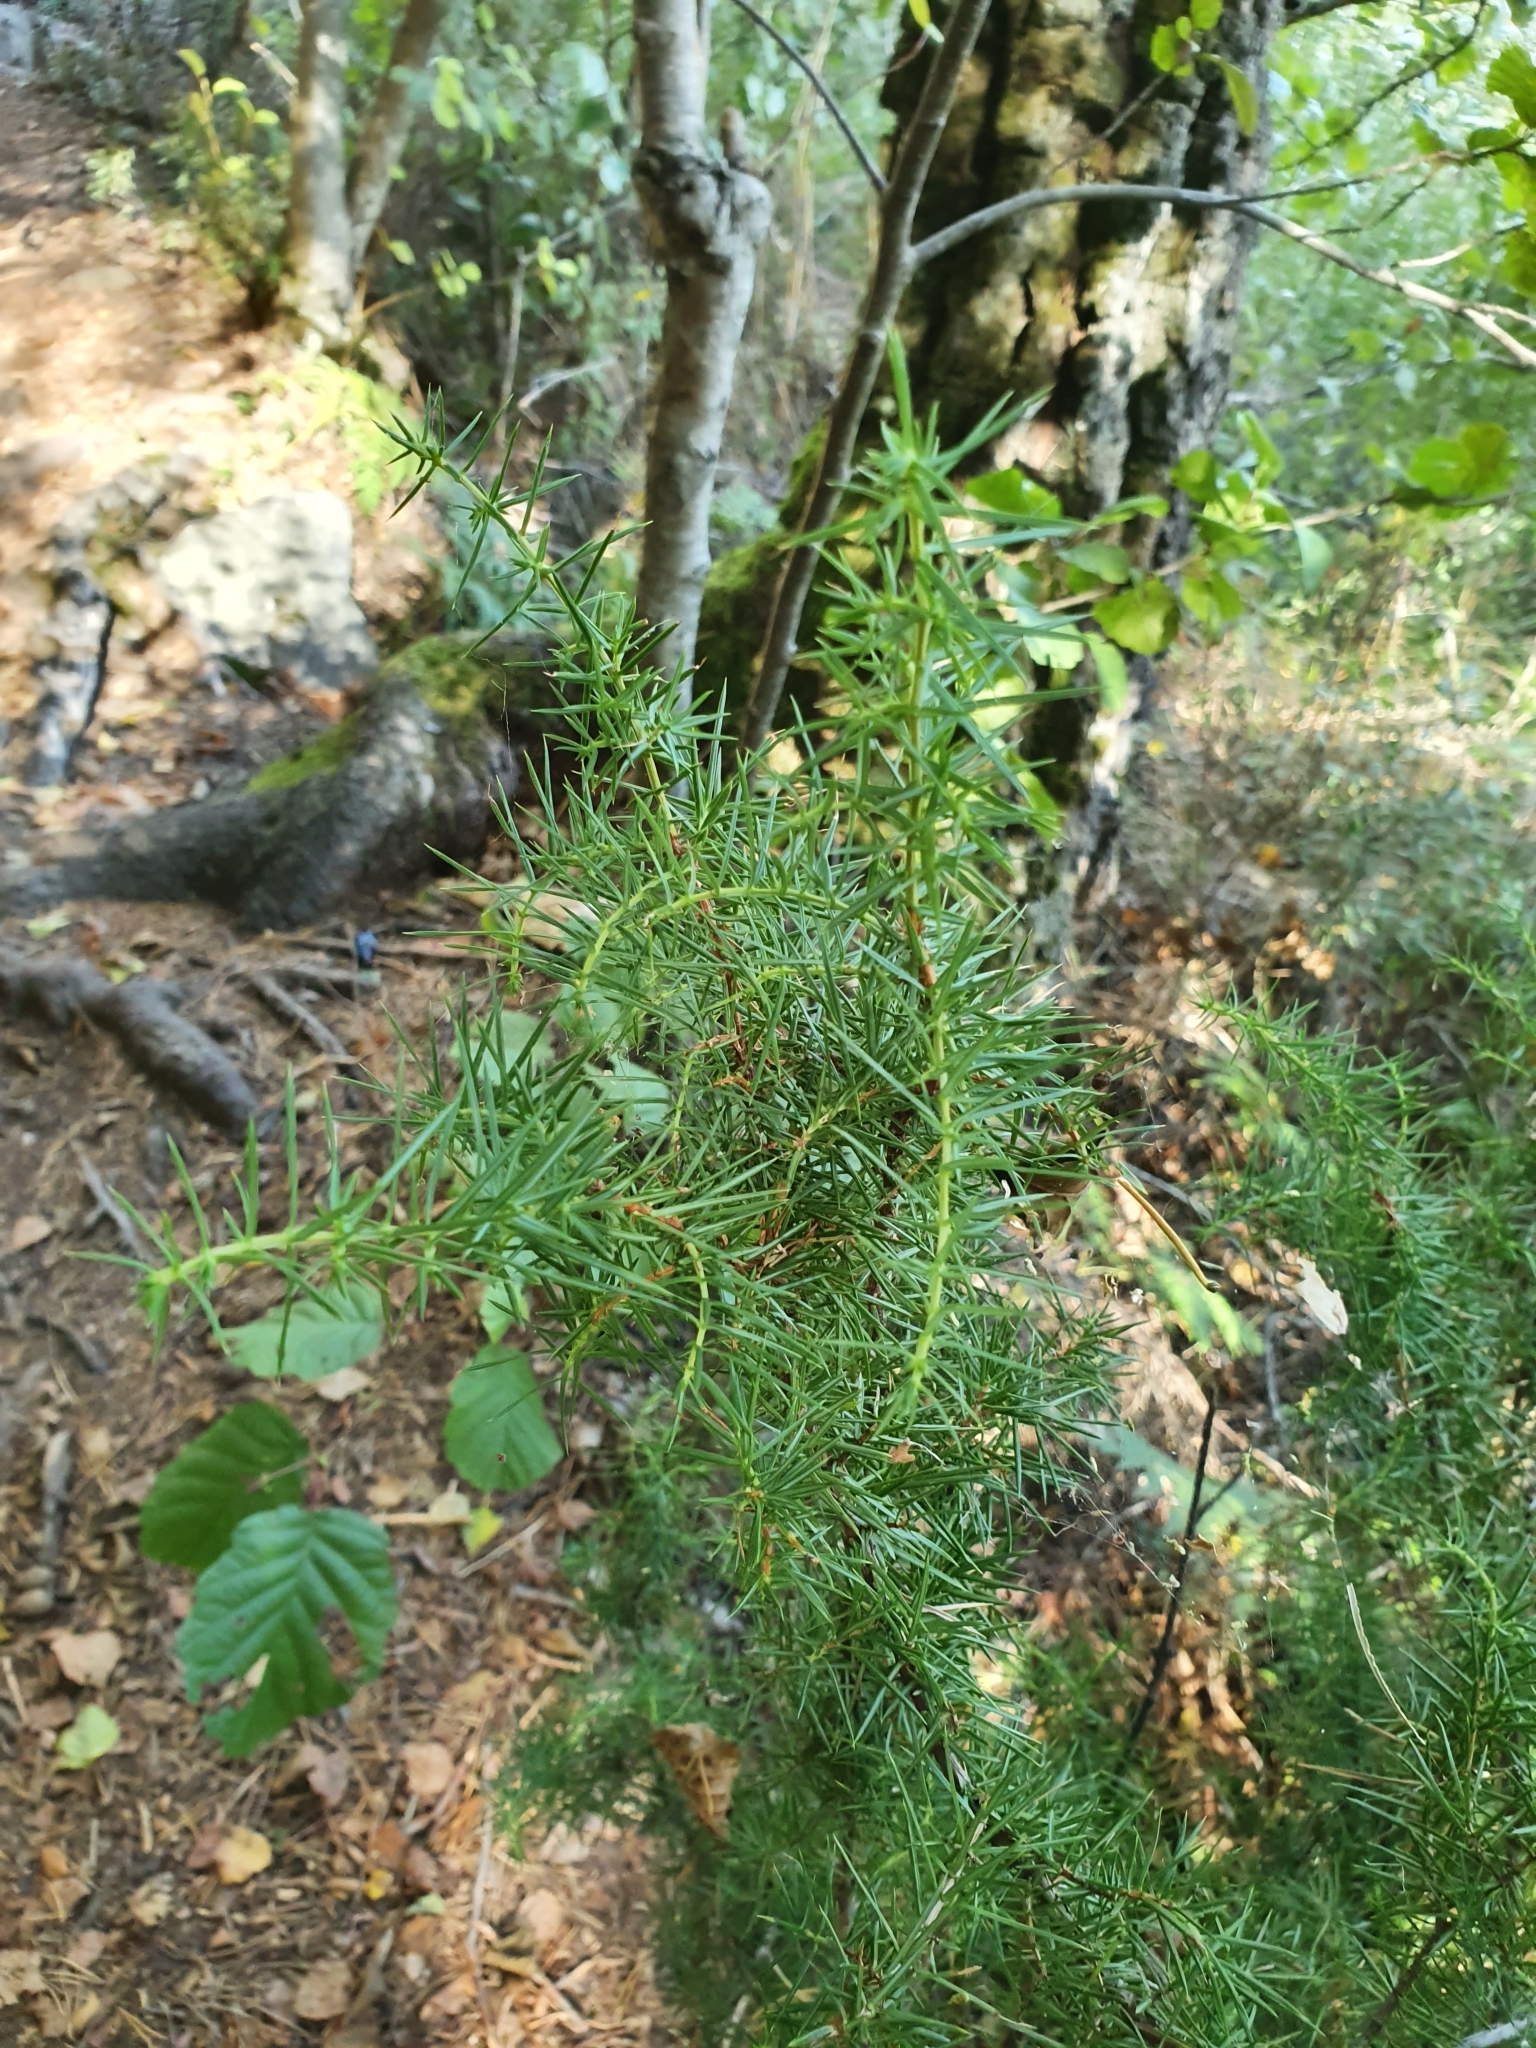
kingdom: Plantae
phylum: Tracheophyta
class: Pinopsida
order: Pinales
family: Cupressaceae
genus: Juniperus
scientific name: Juniperus communis
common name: Common juniper
